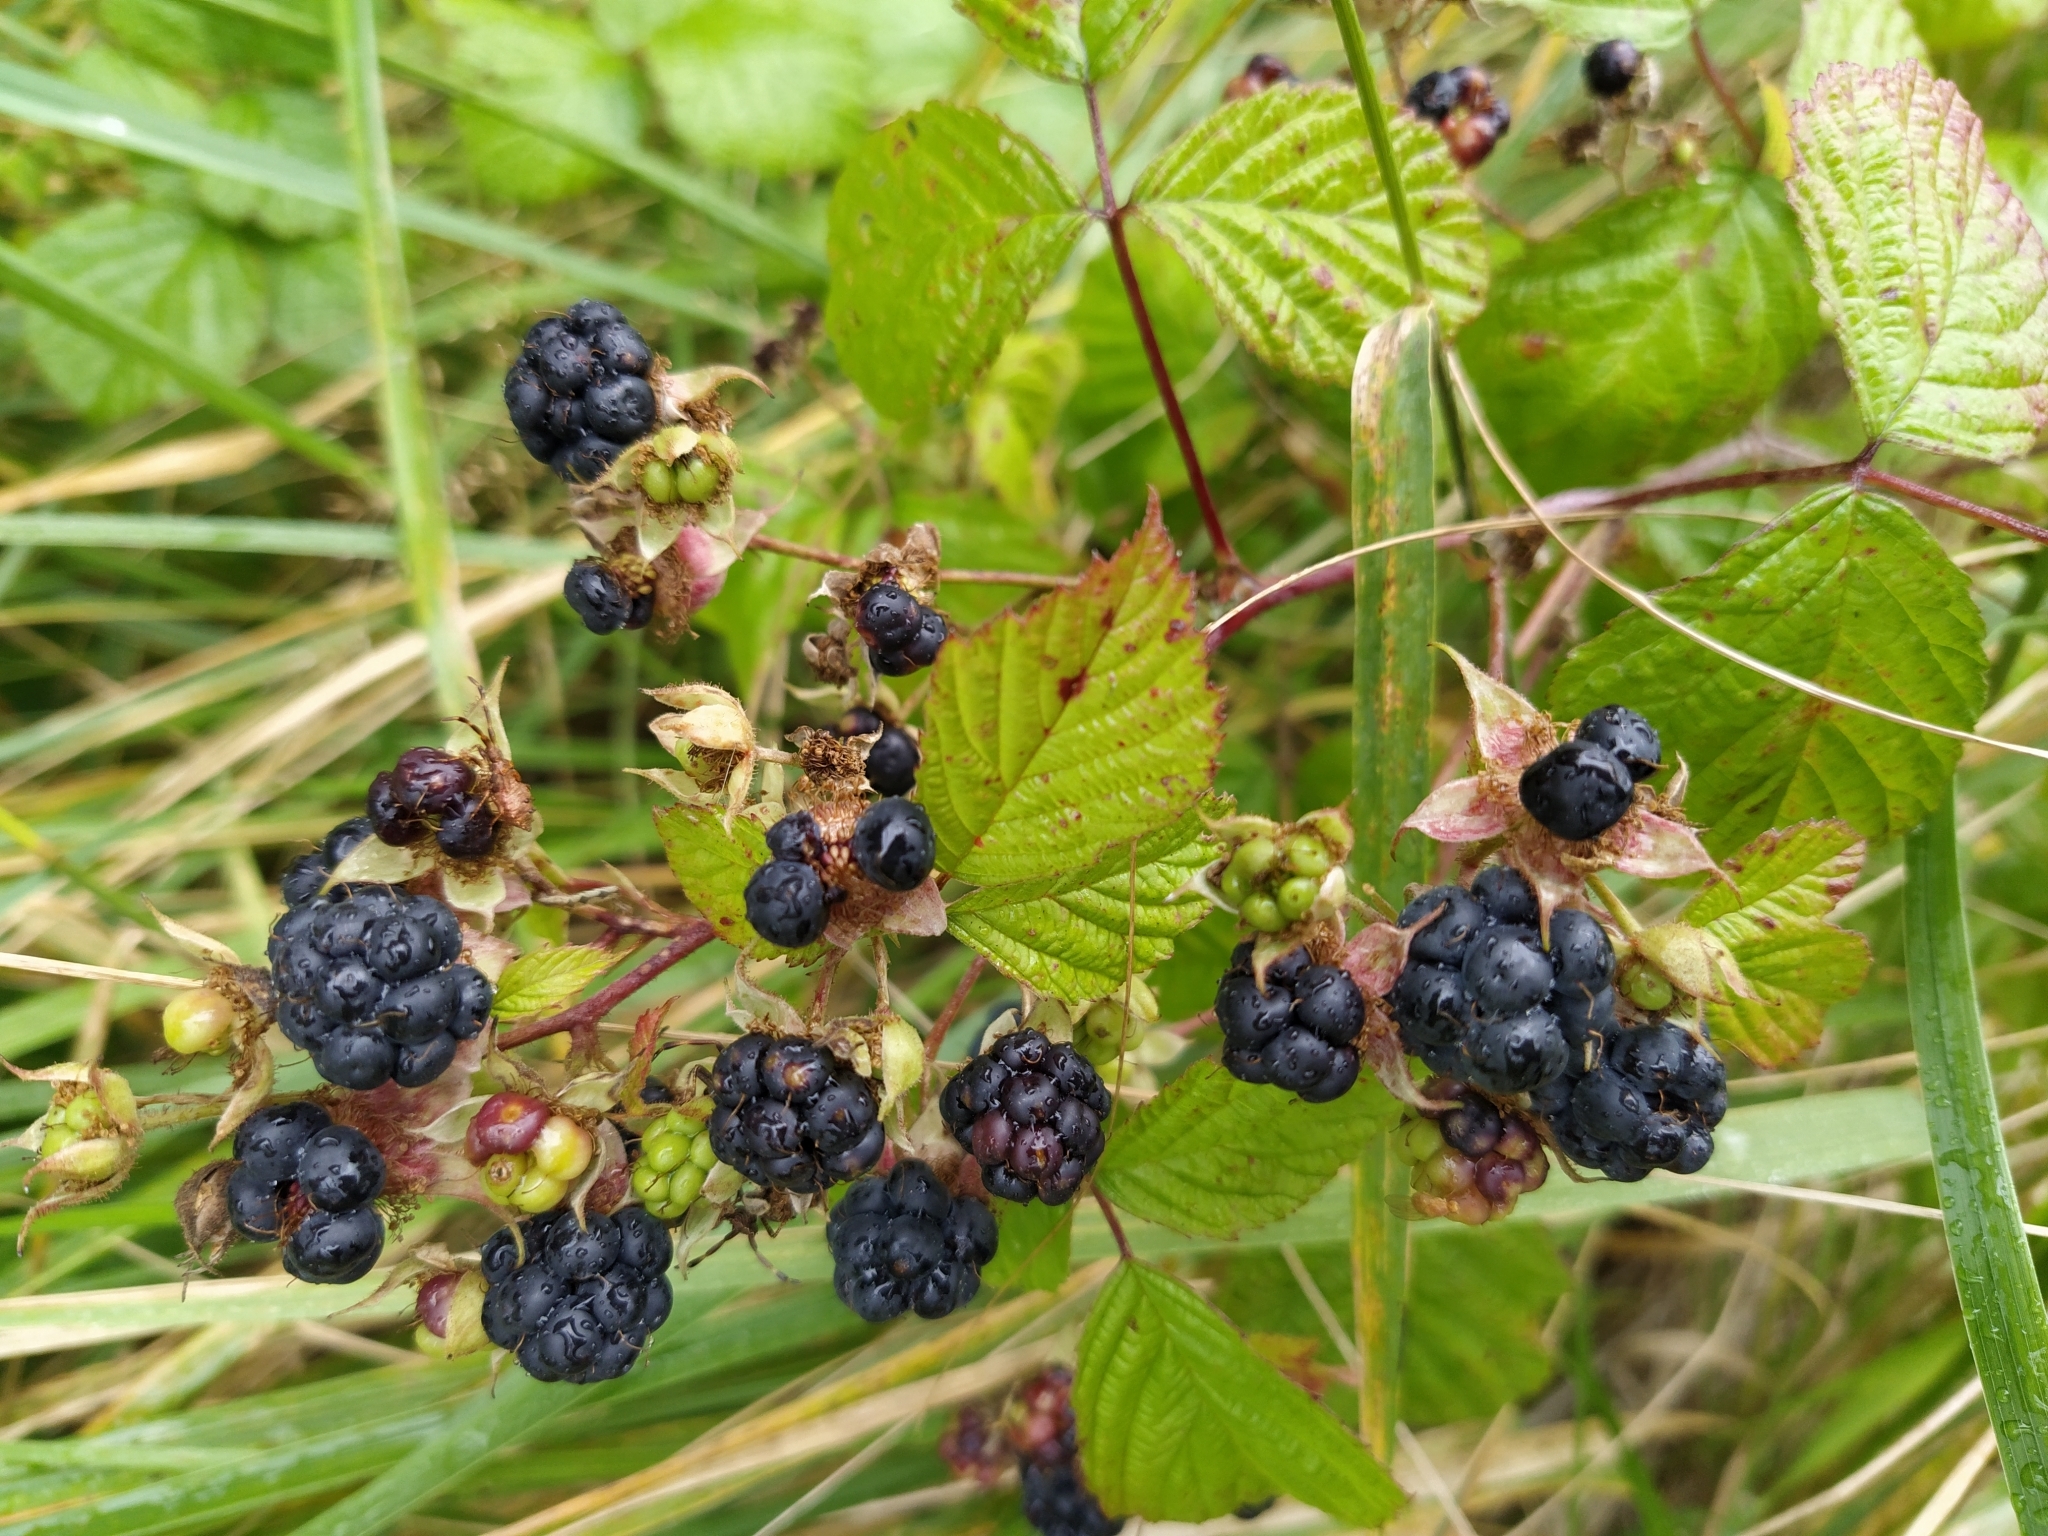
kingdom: Plantae
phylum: Tracheophyta
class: Magnoliopsida
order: Rosales
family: Rosaceae
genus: Rubus
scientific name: Rubus caesius
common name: Dewberry
